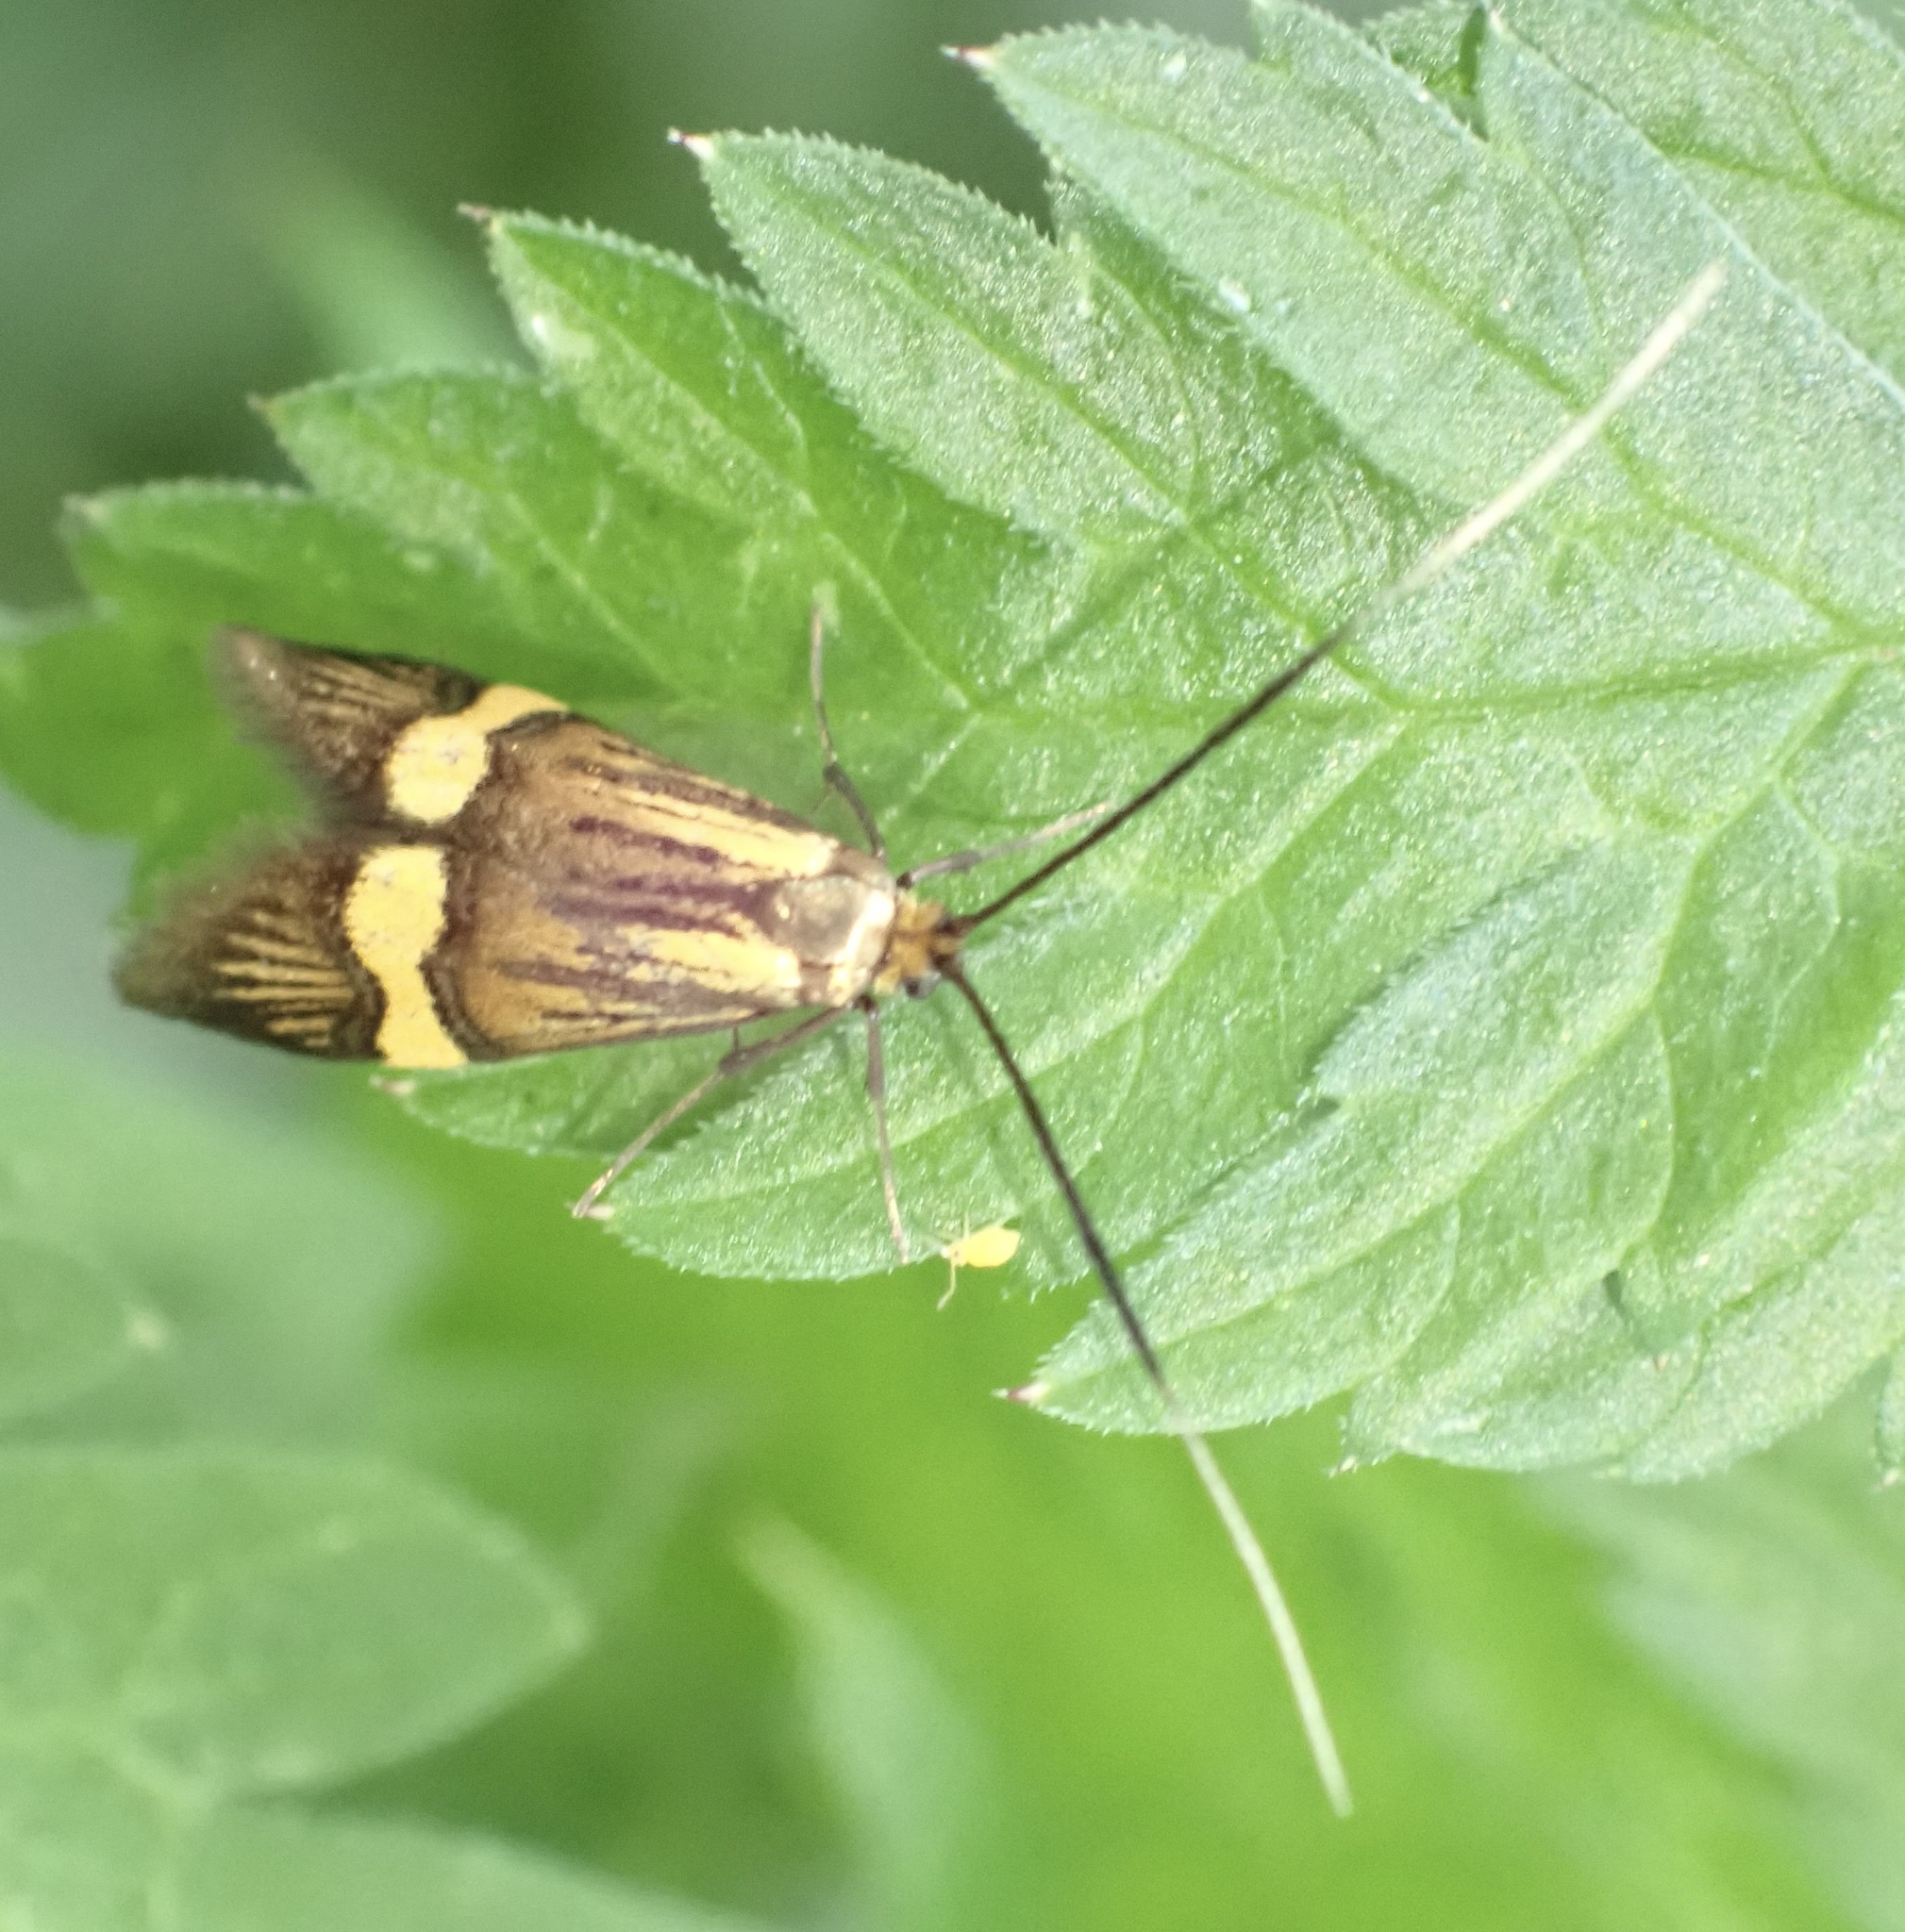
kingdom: Animalia
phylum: Arthropoda
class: Insecta
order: Lepidoptera
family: Adelidae
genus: Nemophora
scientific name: Nemophora degeerella
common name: Yellow-barred long-horn
